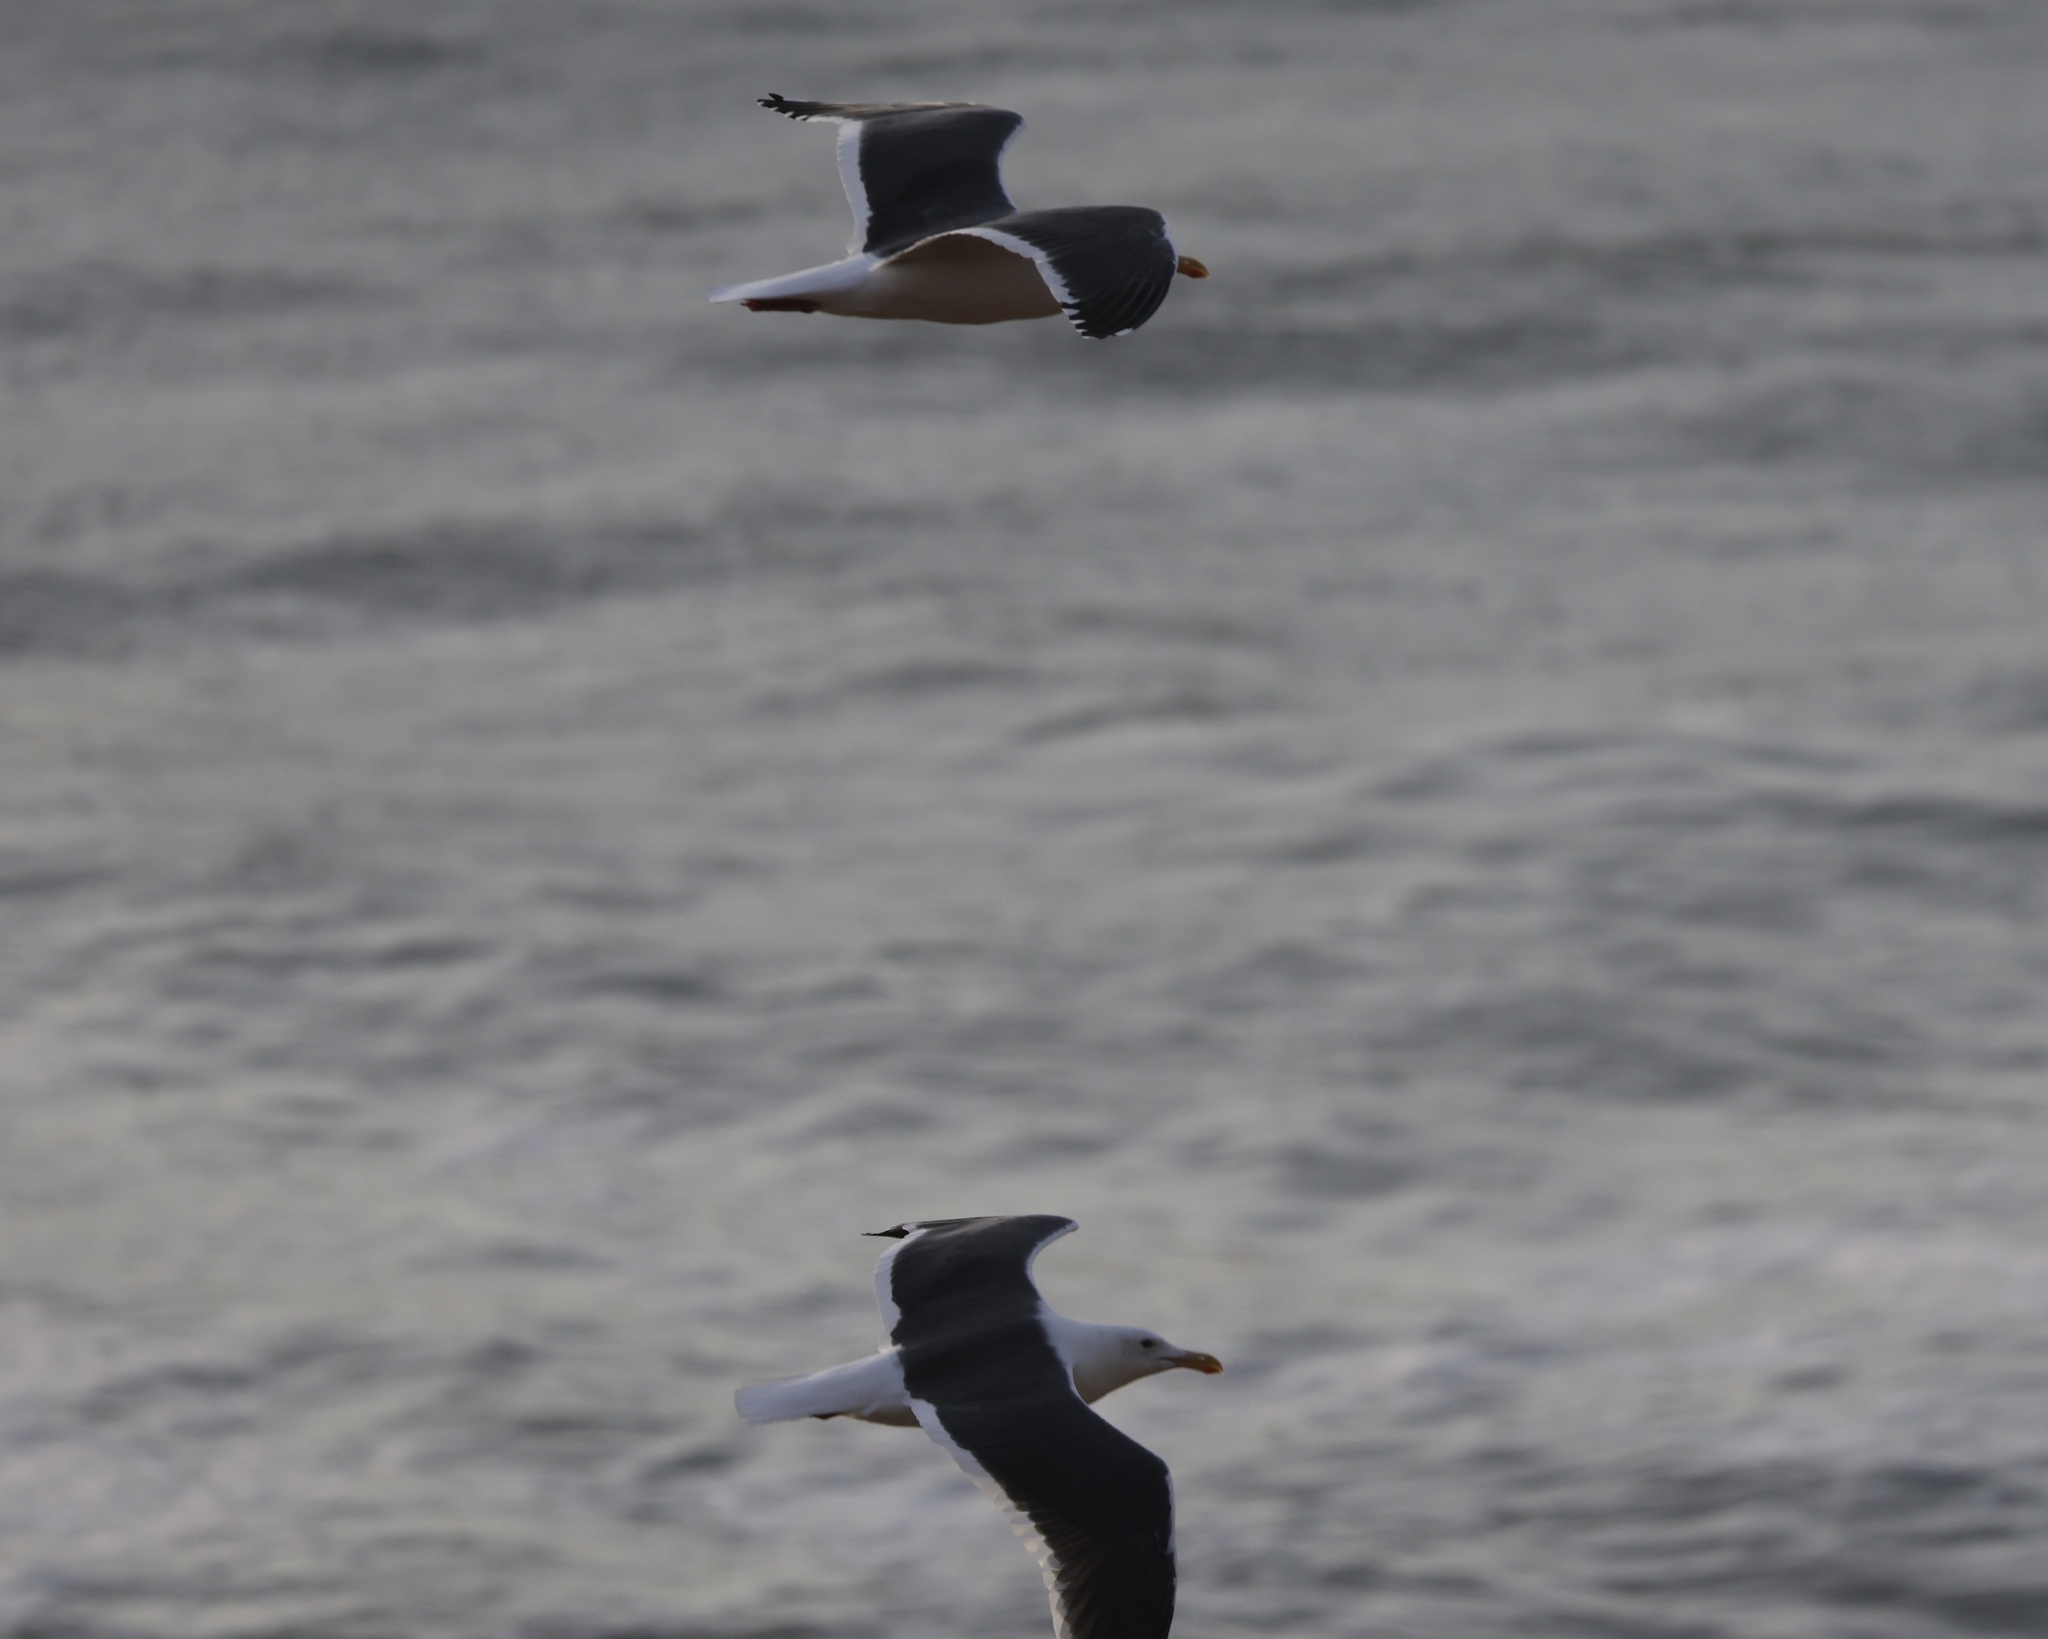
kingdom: Animalia
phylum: Chordata
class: Aves
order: Charadriiformes
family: Laridae
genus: Larus
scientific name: Larus occidentalis
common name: Western gull
